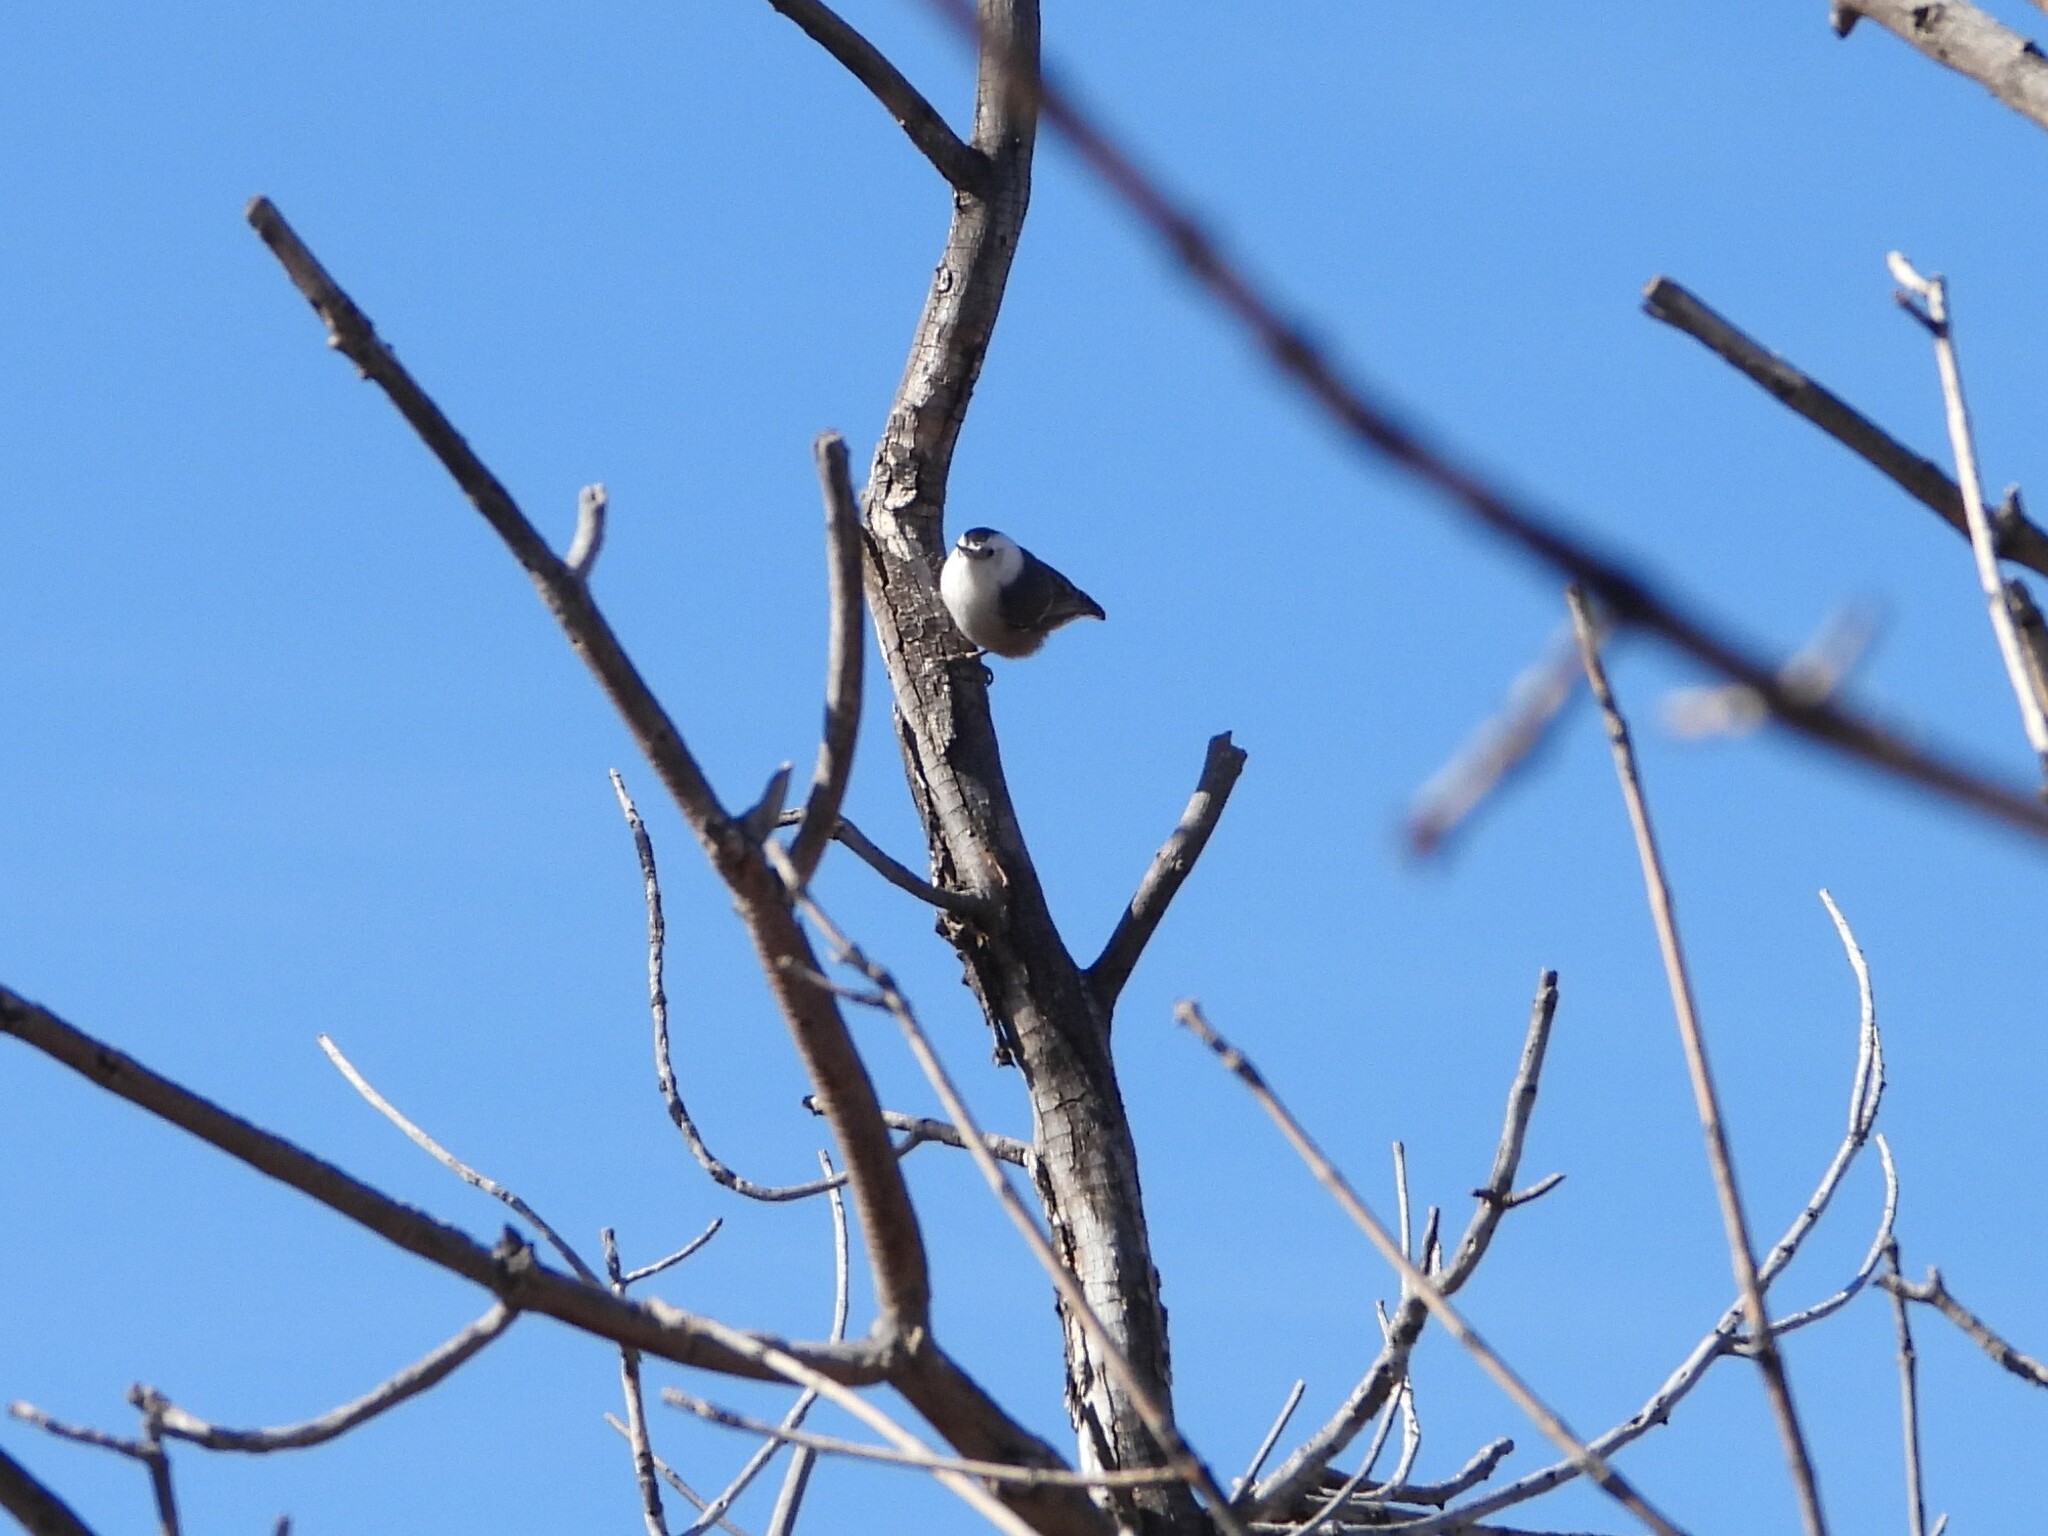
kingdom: Animalia
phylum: Chordata
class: Aves
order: Passeriformes
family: Sittidae
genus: Sitta
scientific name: Sitta carolinensis
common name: White-breasted nuthatch
